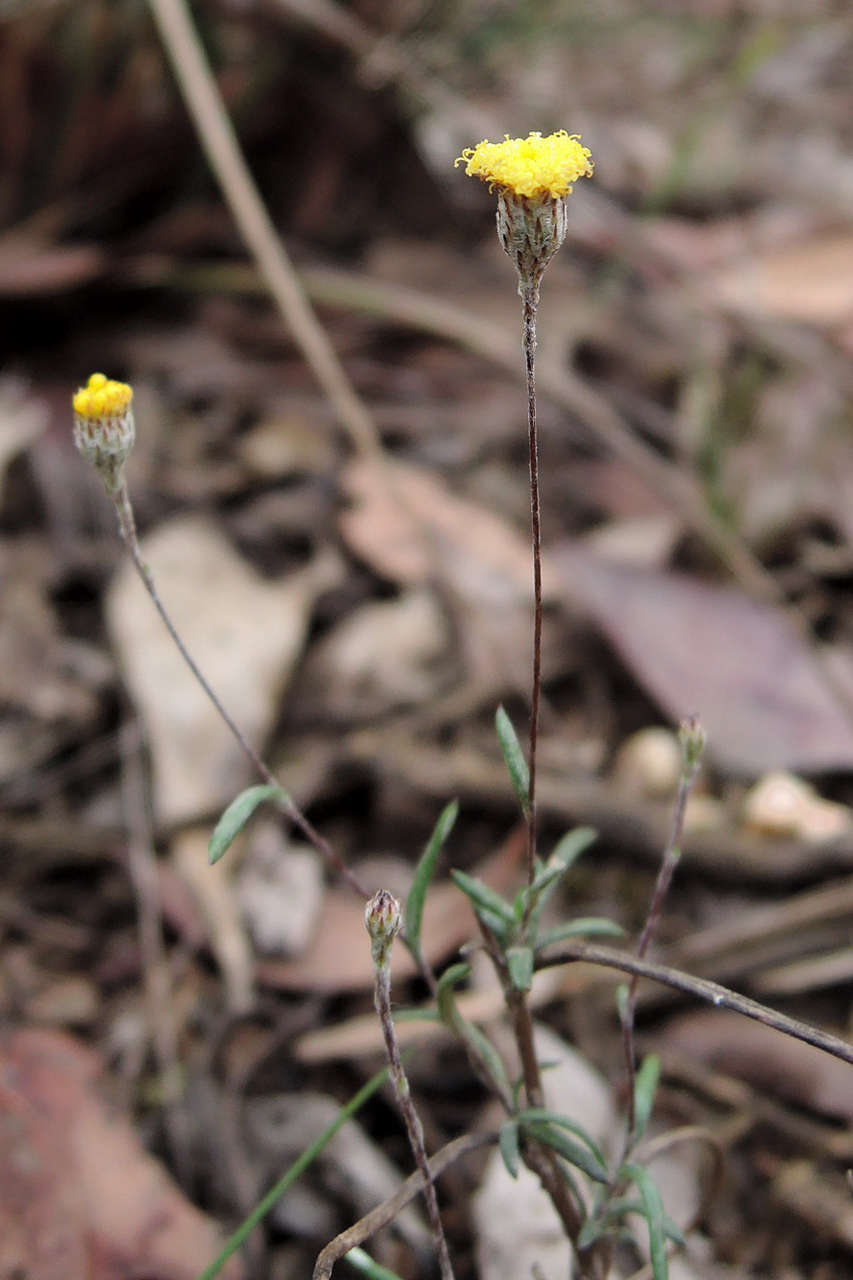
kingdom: Plantae
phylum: Tracheophyta
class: Magnoliopsida
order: Asterales
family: Asteraceae
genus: Leptorhynchos
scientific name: Leptorhynchos tenuifolius
